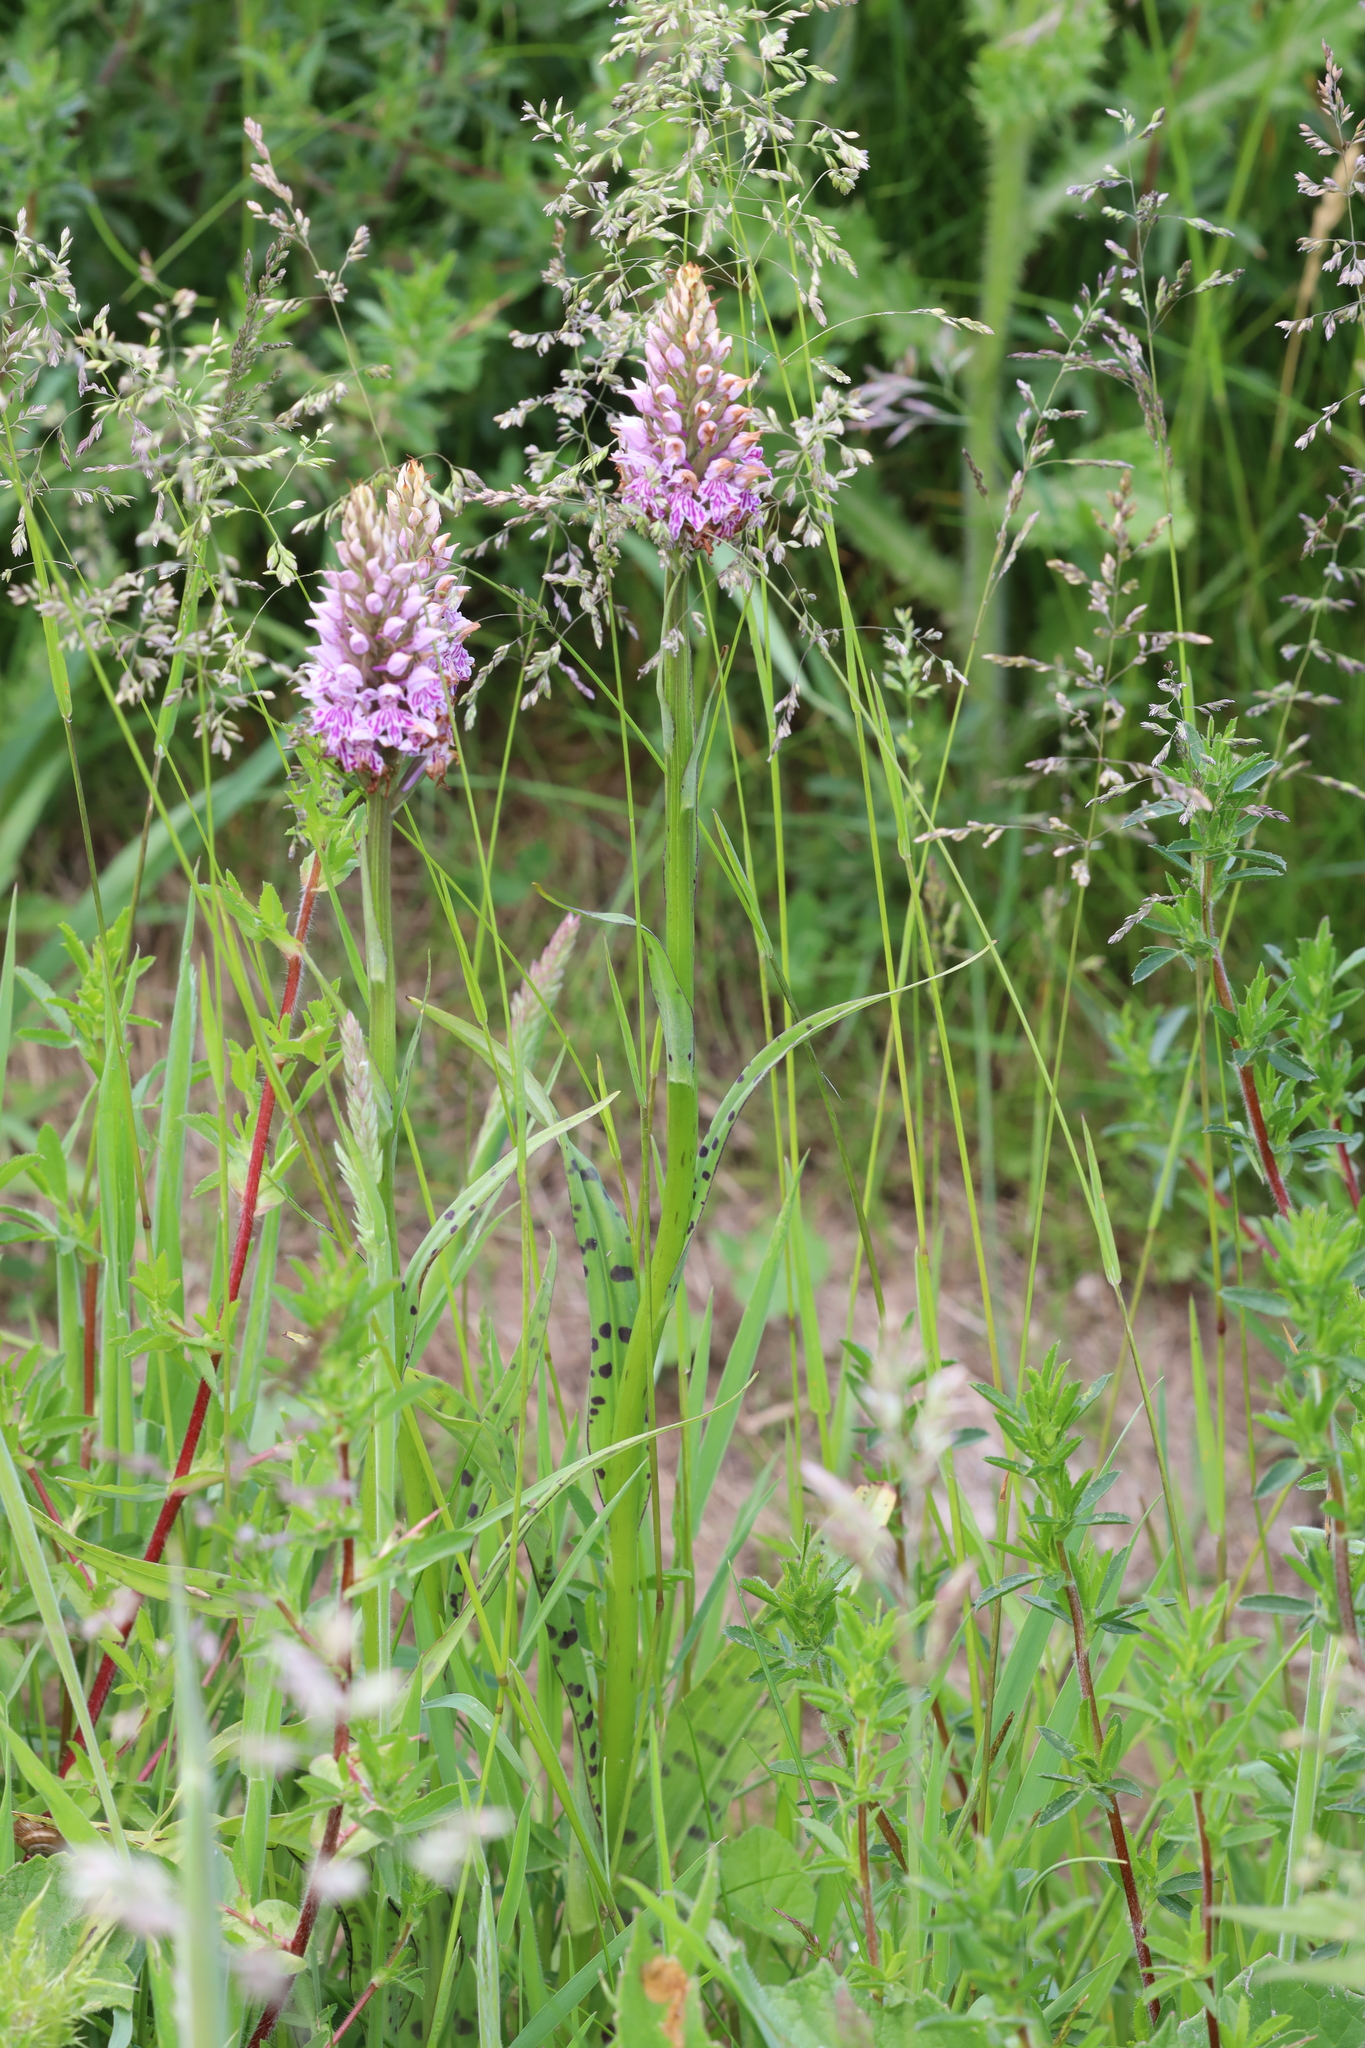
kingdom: Plantae
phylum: Tracheophyta
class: Liliopsida
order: Asparagales
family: Orchidaceae
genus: Dactylorhiza
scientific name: Dactylorhiza maculata
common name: Heath spotted-orchid
